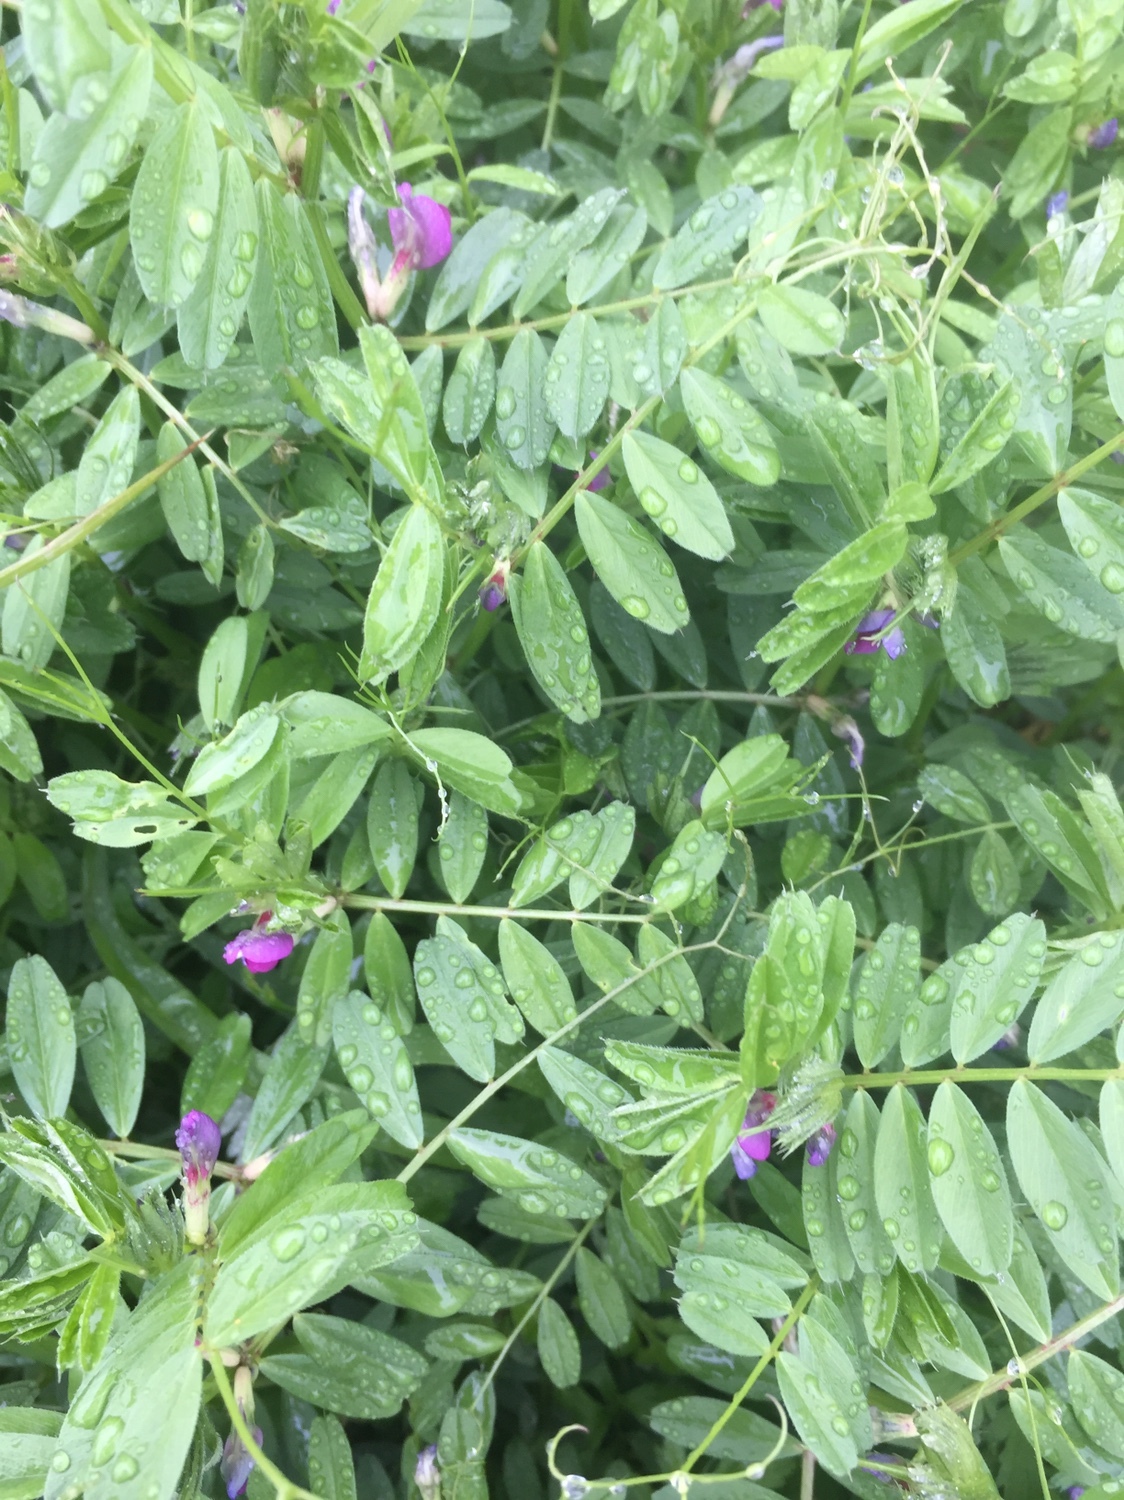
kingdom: Plantae
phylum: Tracheophyta
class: Magnoliopsida
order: Fabales
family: Fabaceae
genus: Vicia
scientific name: Vicia sativa
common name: Garden vetch
